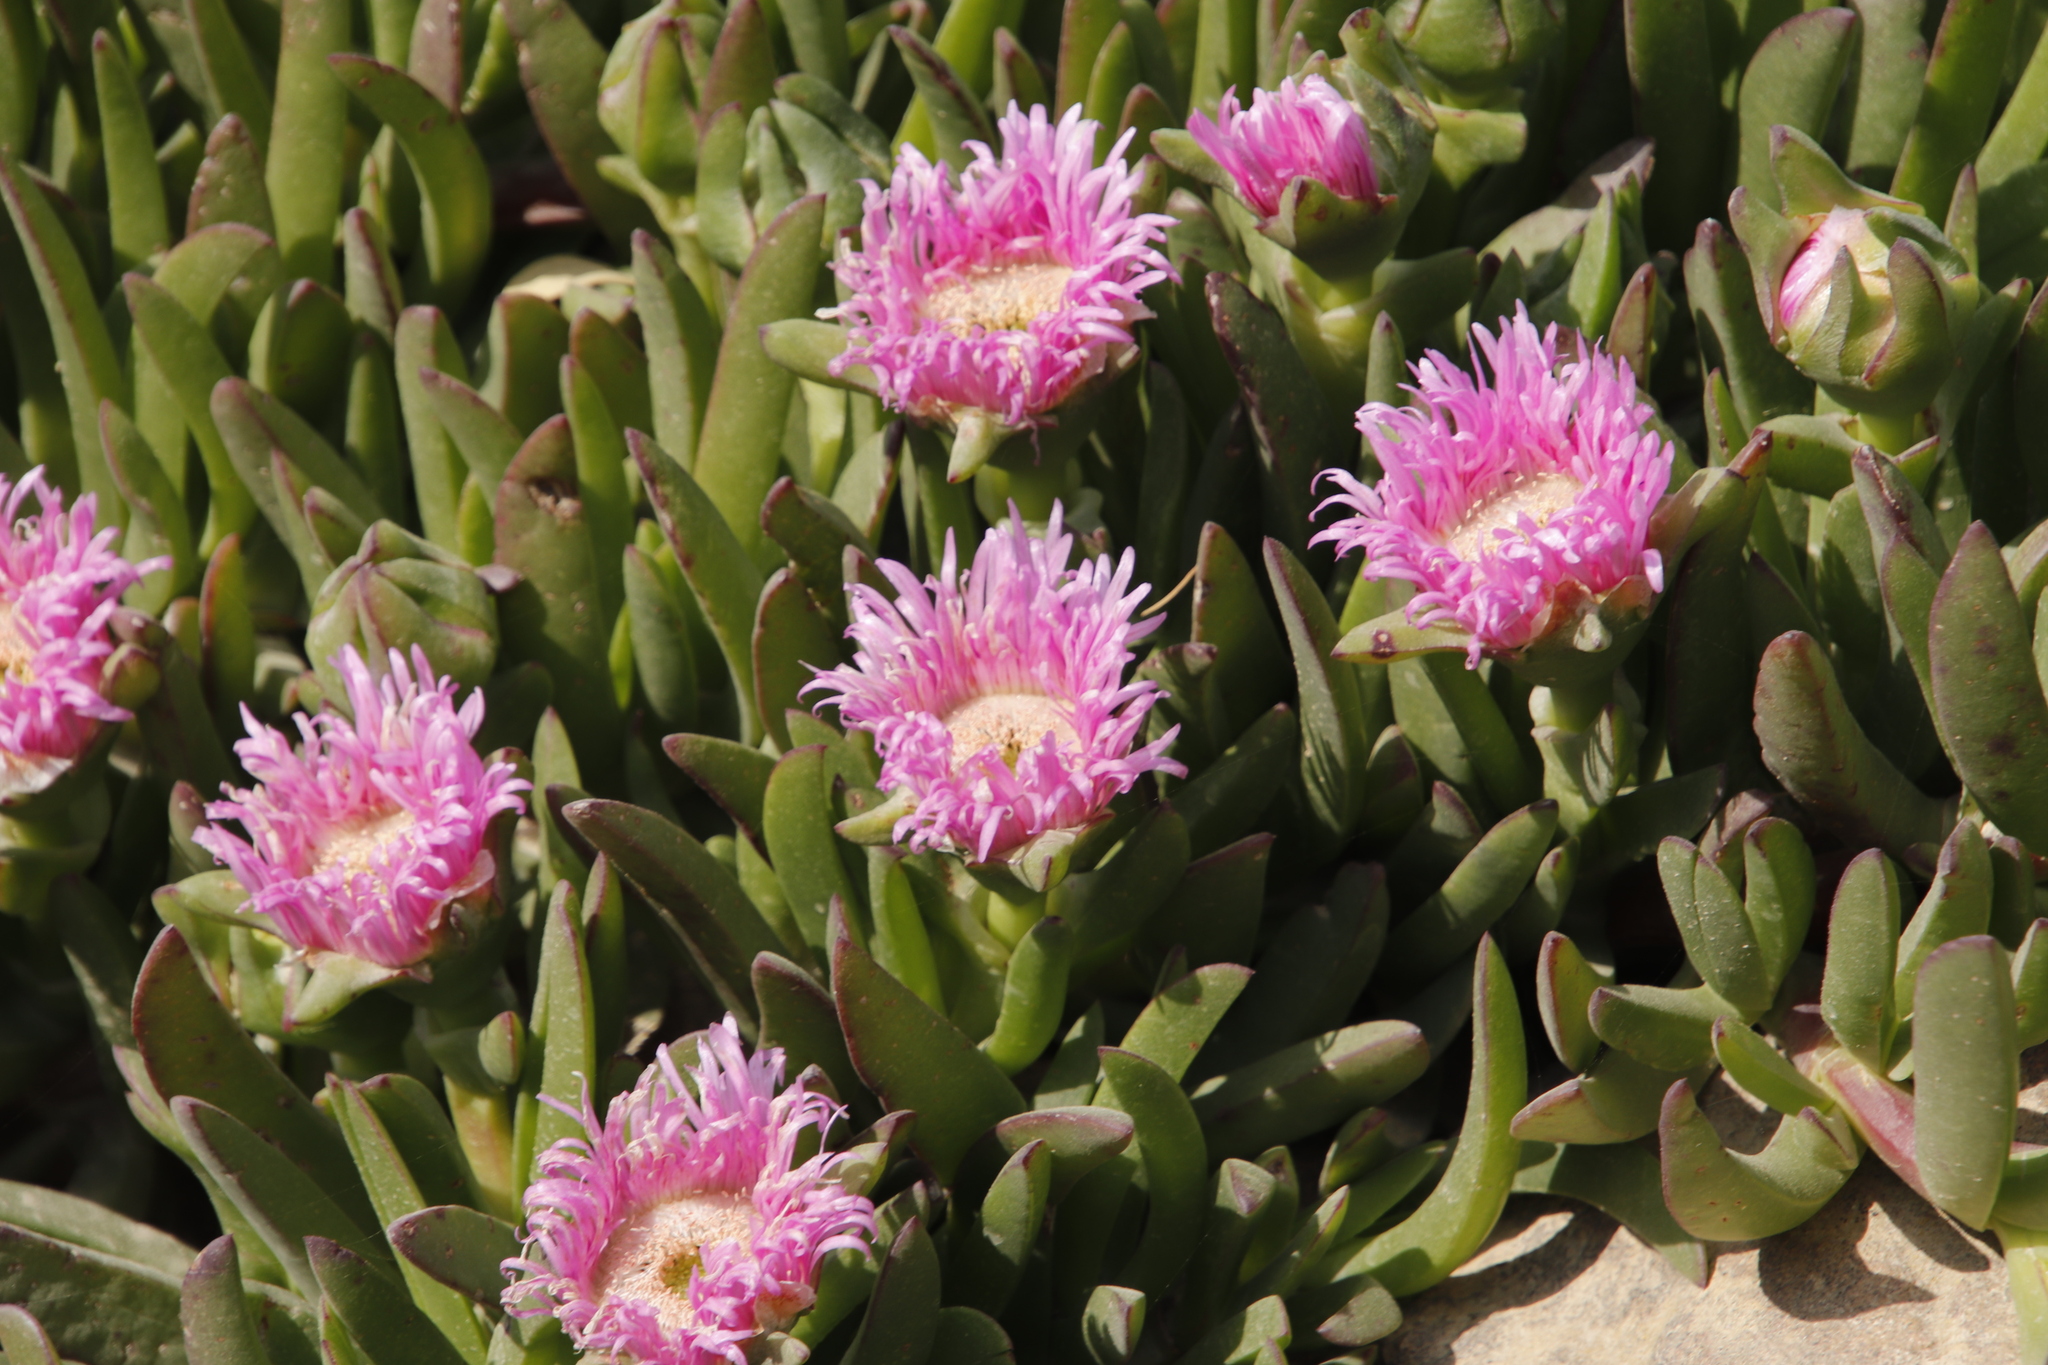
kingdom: Plantae
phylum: Tracheophyta
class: Magnoliopsida
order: Caryophyllales
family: Aizoaceae
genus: Carpobrotus
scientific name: Carpobrotus mellei
